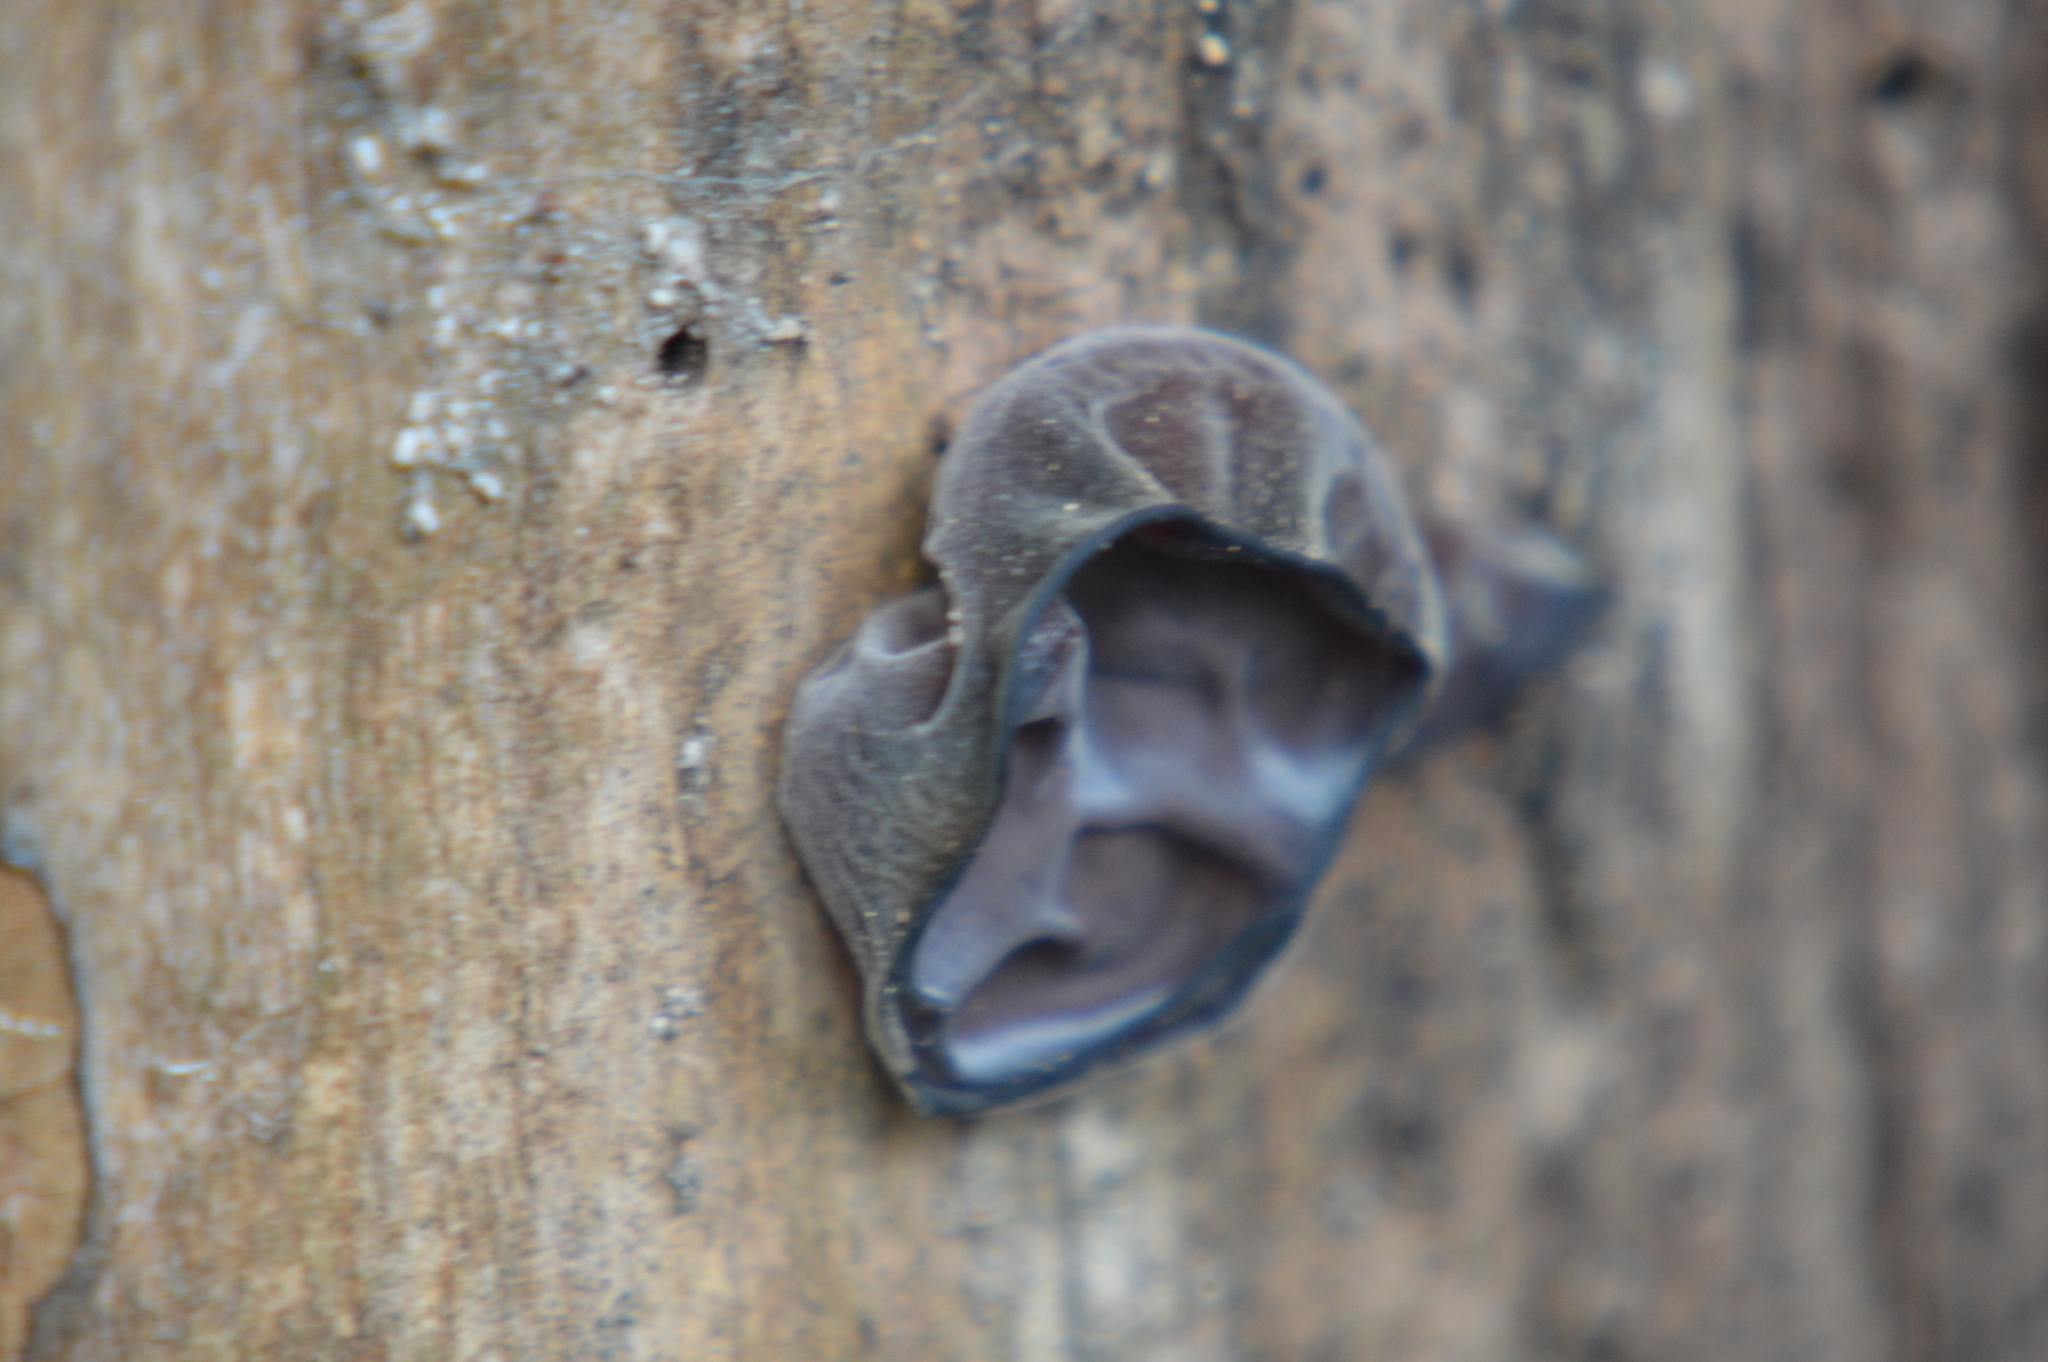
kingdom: Fungi
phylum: Basidiomycota
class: Agaricomycetes
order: Auriculariales
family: Auriculariaceae
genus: Auricularia
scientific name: Auricularia auricula-judae
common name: Jelly ear
